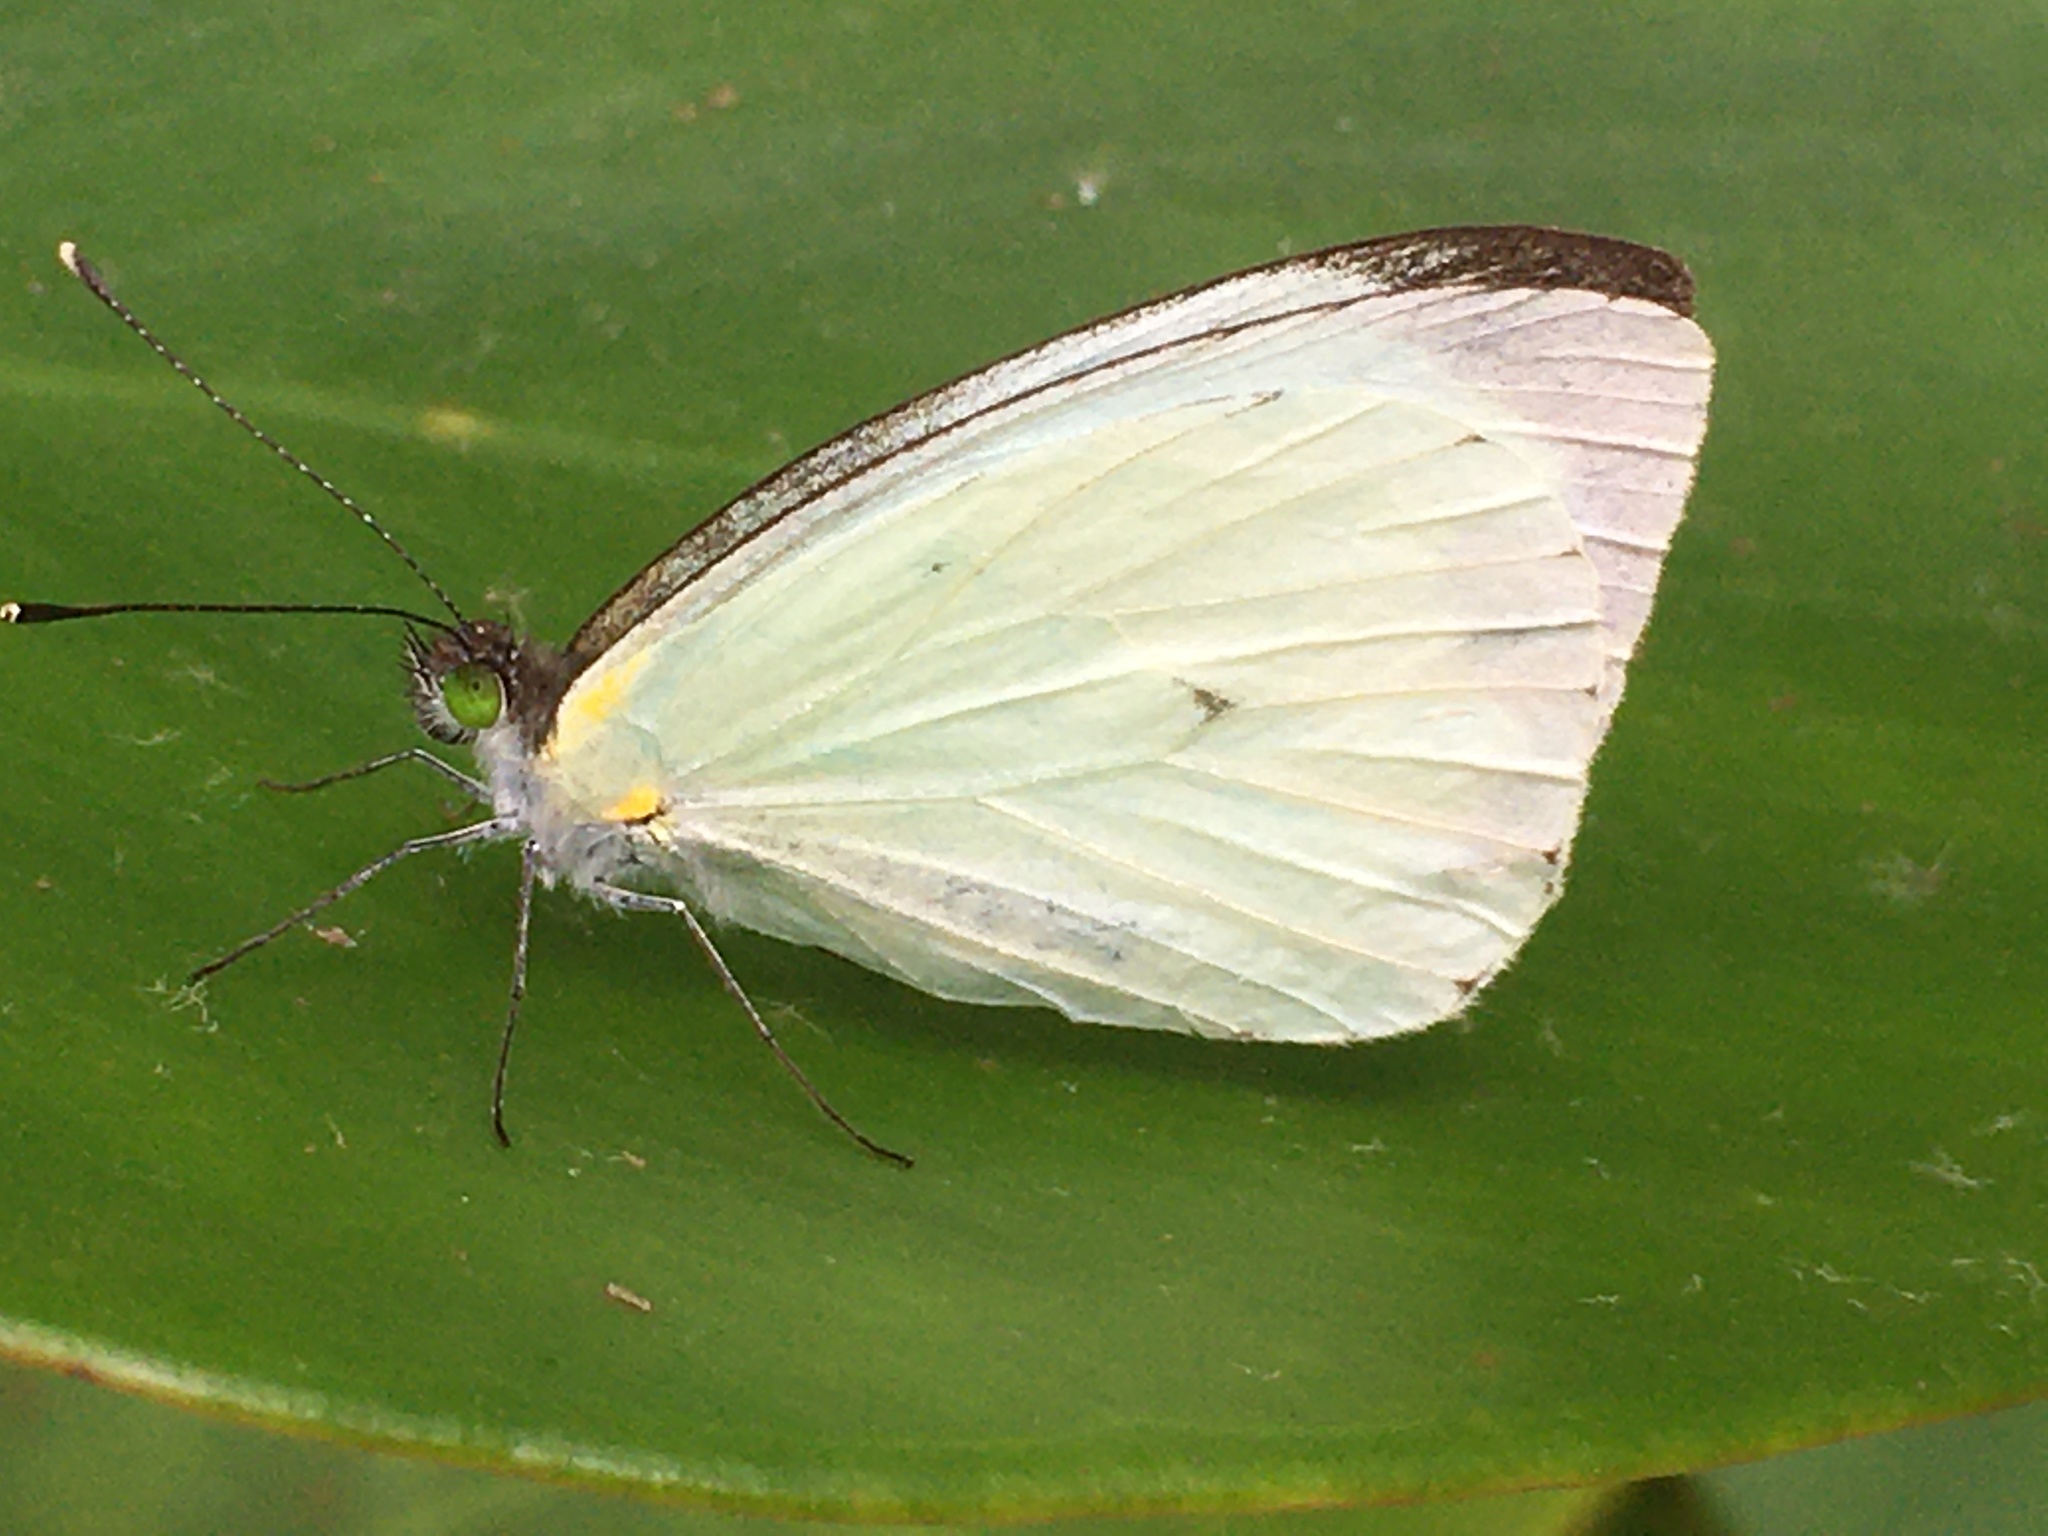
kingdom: Animalia
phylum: Arthropoda
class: Insecta
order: Lepidoptera
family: Pieridae
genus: Leptophobia
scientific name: Leptophobia aripa
